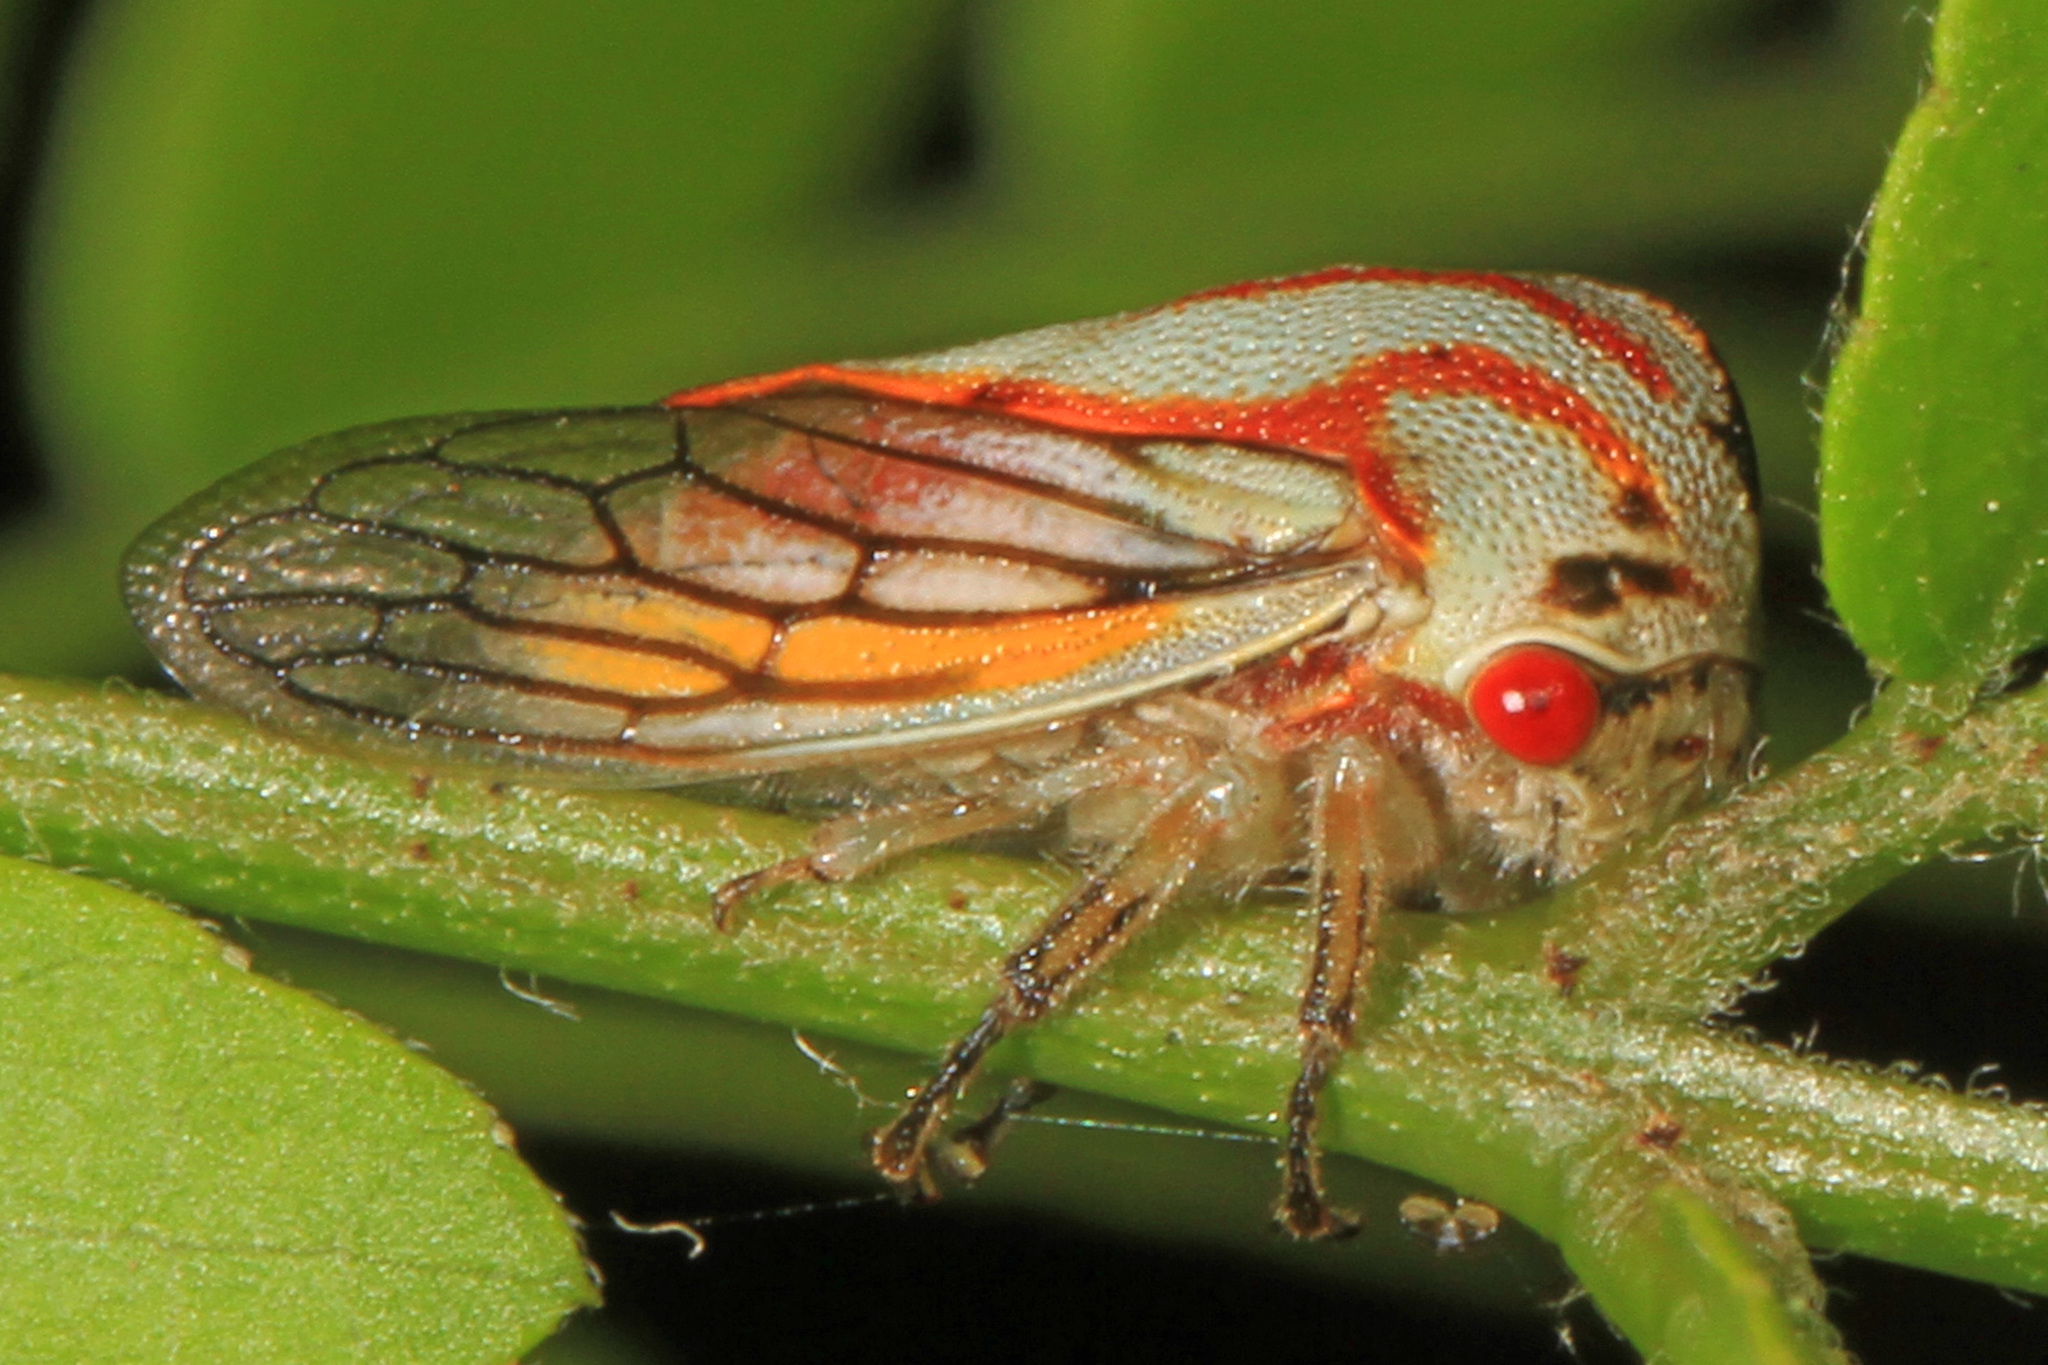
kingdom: Animalia
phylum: Arthropoda
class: Insecta
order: Hemiptera
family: Membracidae
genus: Platycotis
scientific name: Platycotis vittatus
